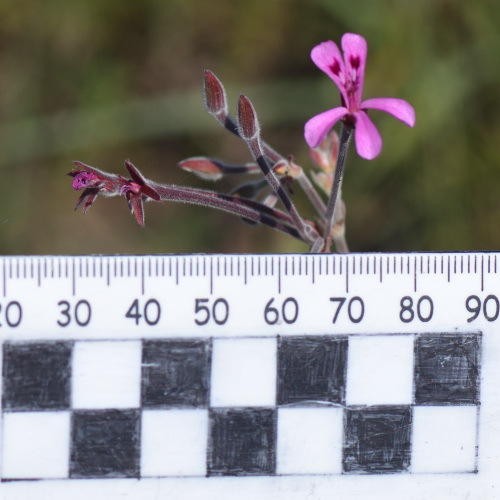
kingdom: Plantae
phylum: Tracheophyta
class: Magnoliopsida
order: Geraniales
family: Geraniaceae
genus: Pelargonium
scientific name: Pelargonium reniforme
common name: Kidney-leaf pelargonium
